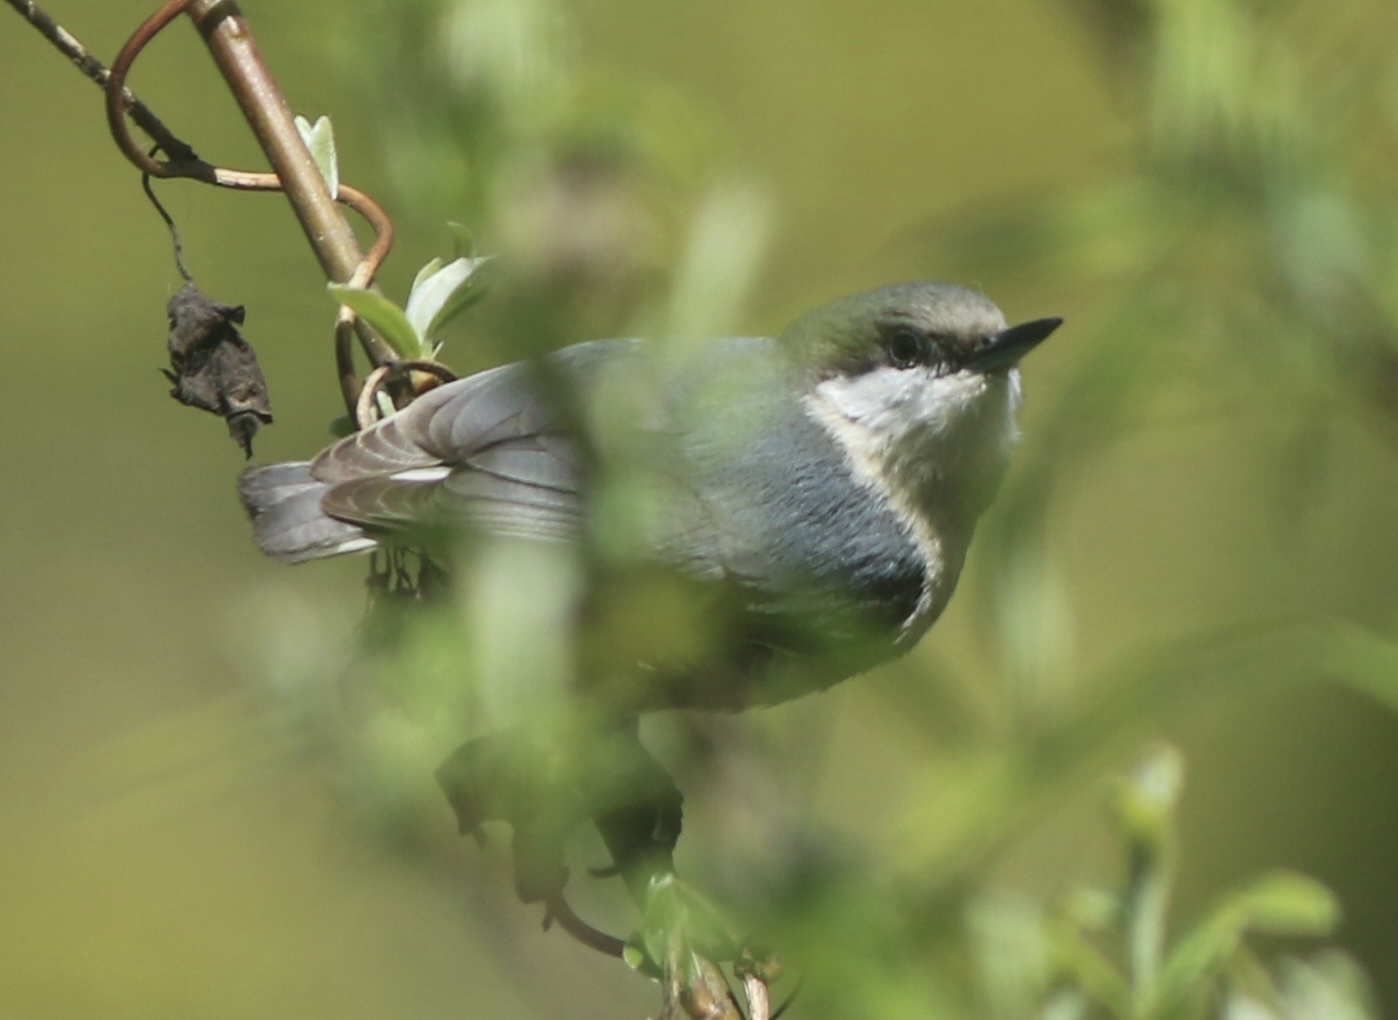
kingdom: Animalia
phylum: Chordata
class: Aves
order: Passeriformes
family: Sittidae
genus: Sitta
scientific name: Sitta pygmaea
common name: Pygmy nuthatch
